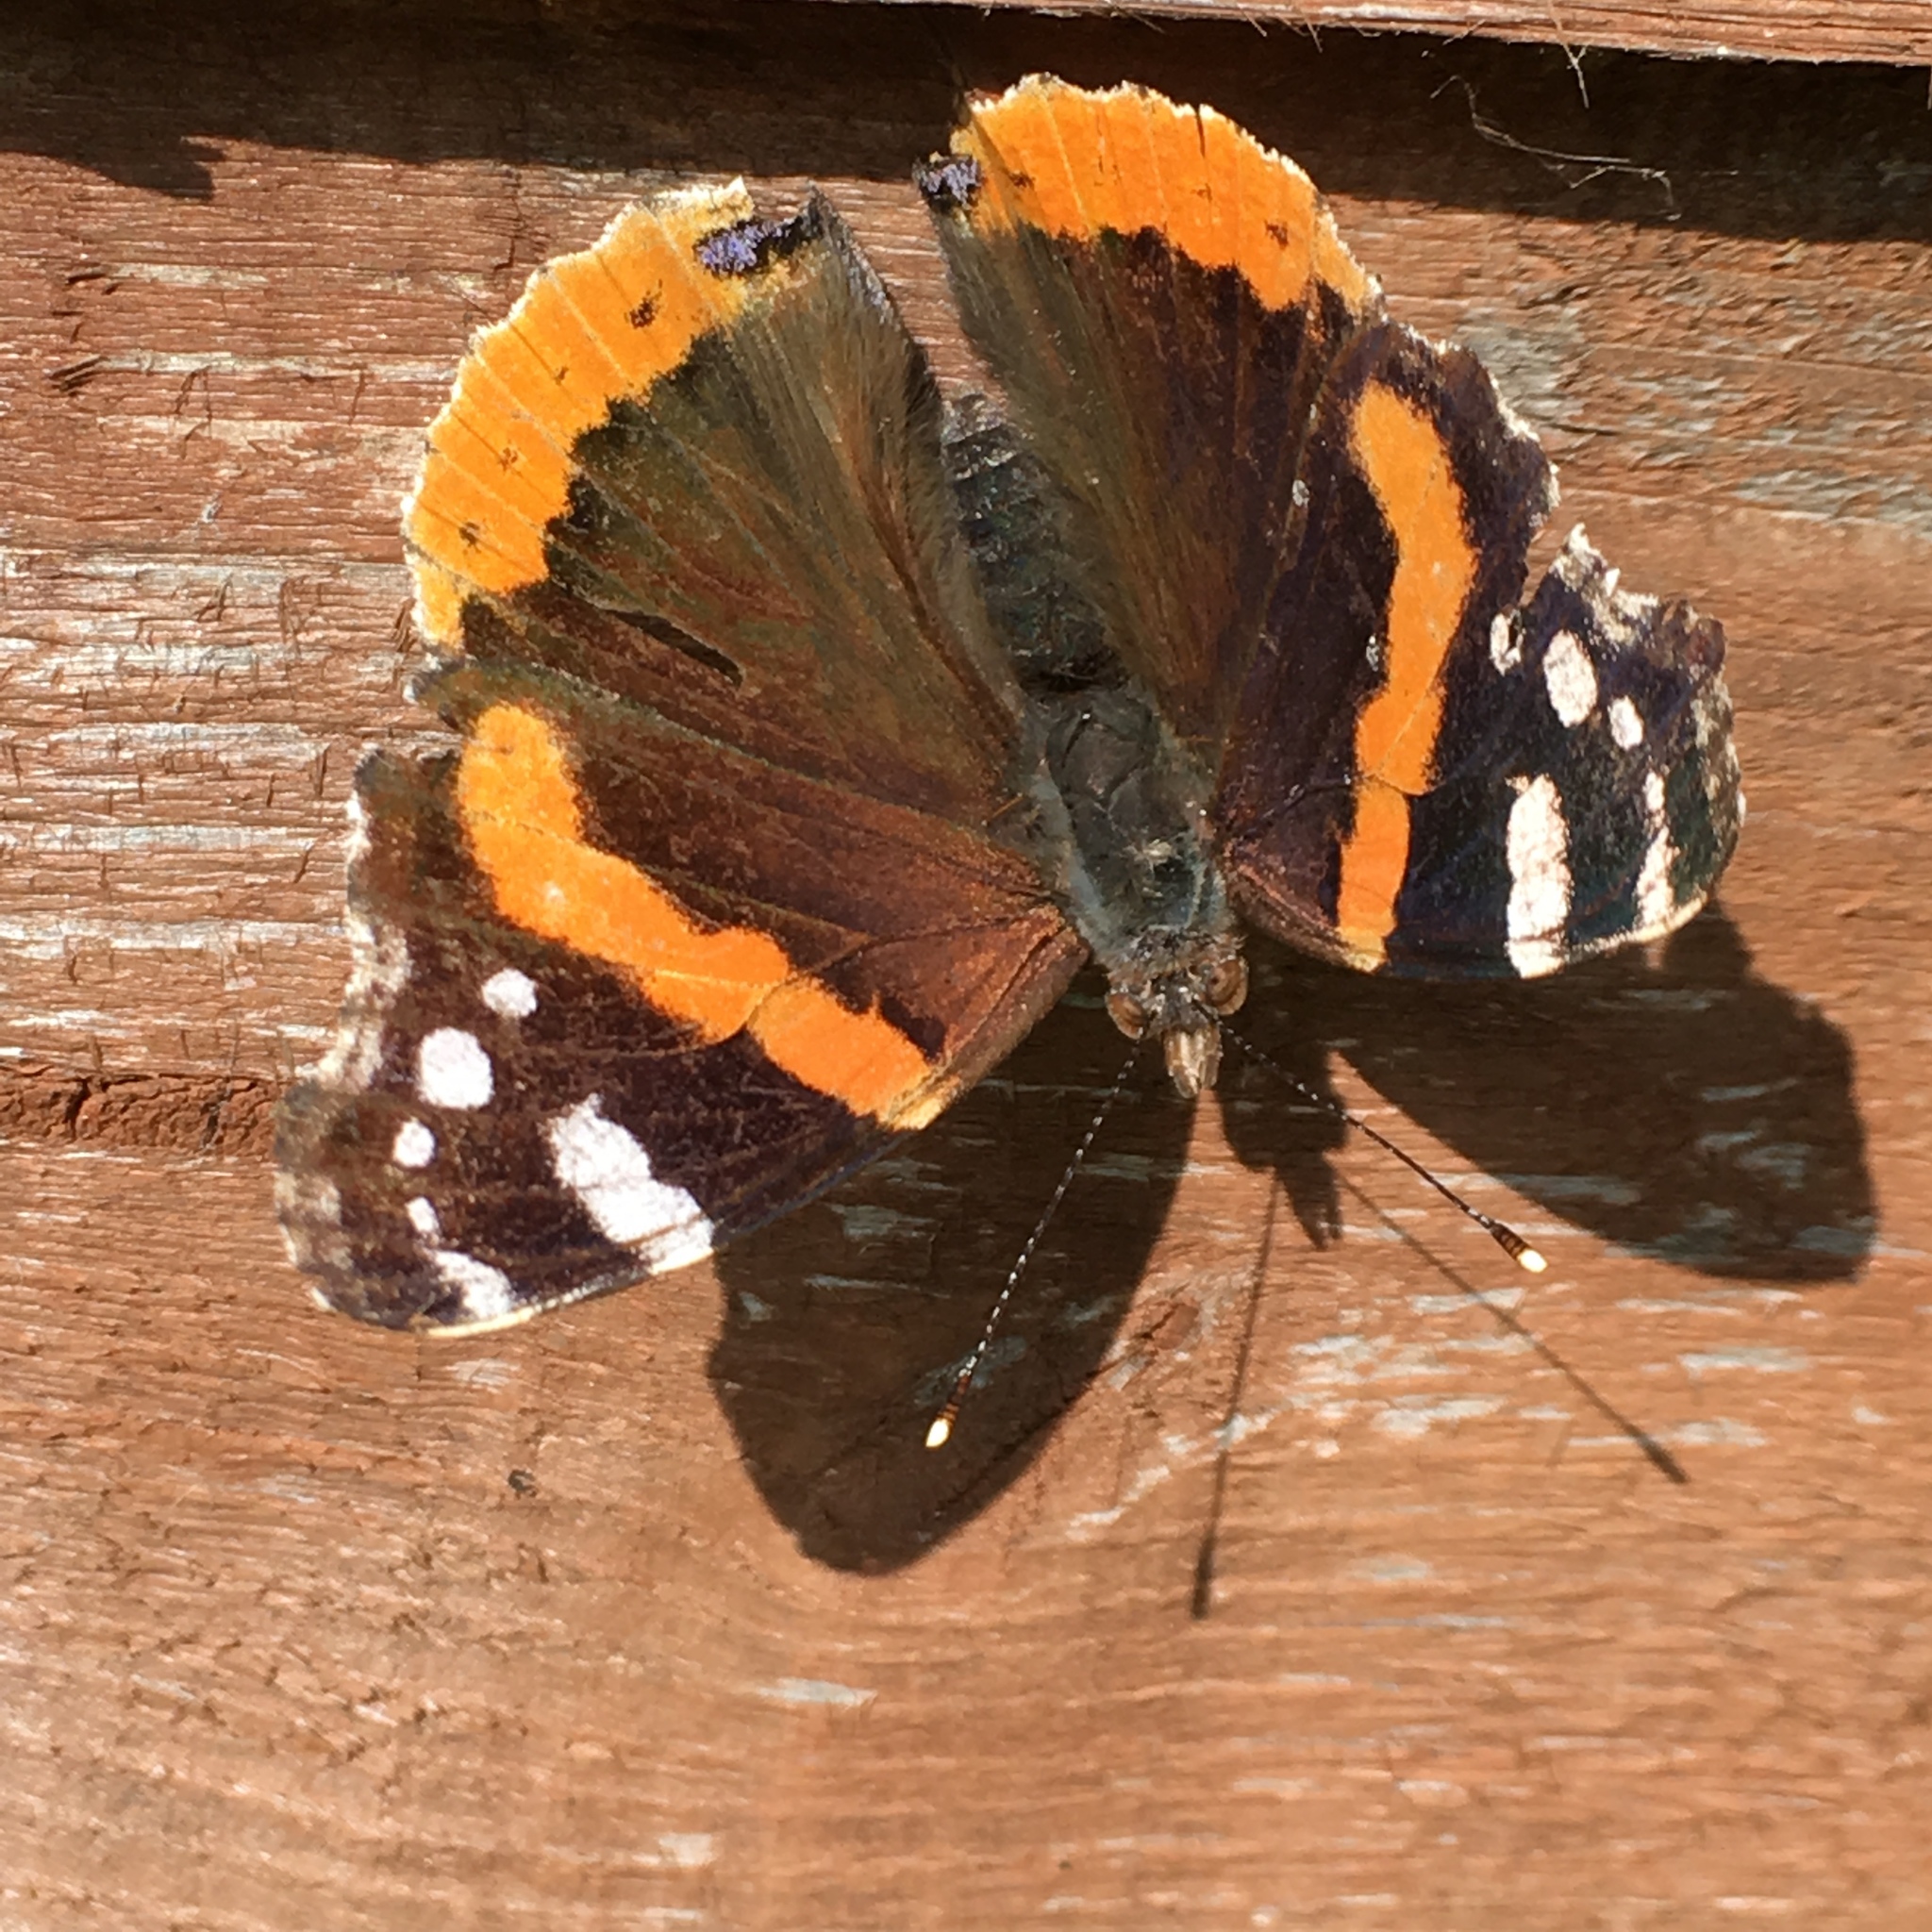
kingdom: Animalia
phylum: Arthropoda
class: Insecta
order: Lepidoptera
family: Nymphalidae
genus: Vanessa
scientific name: Vanessa atalanta
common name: Red admiral
